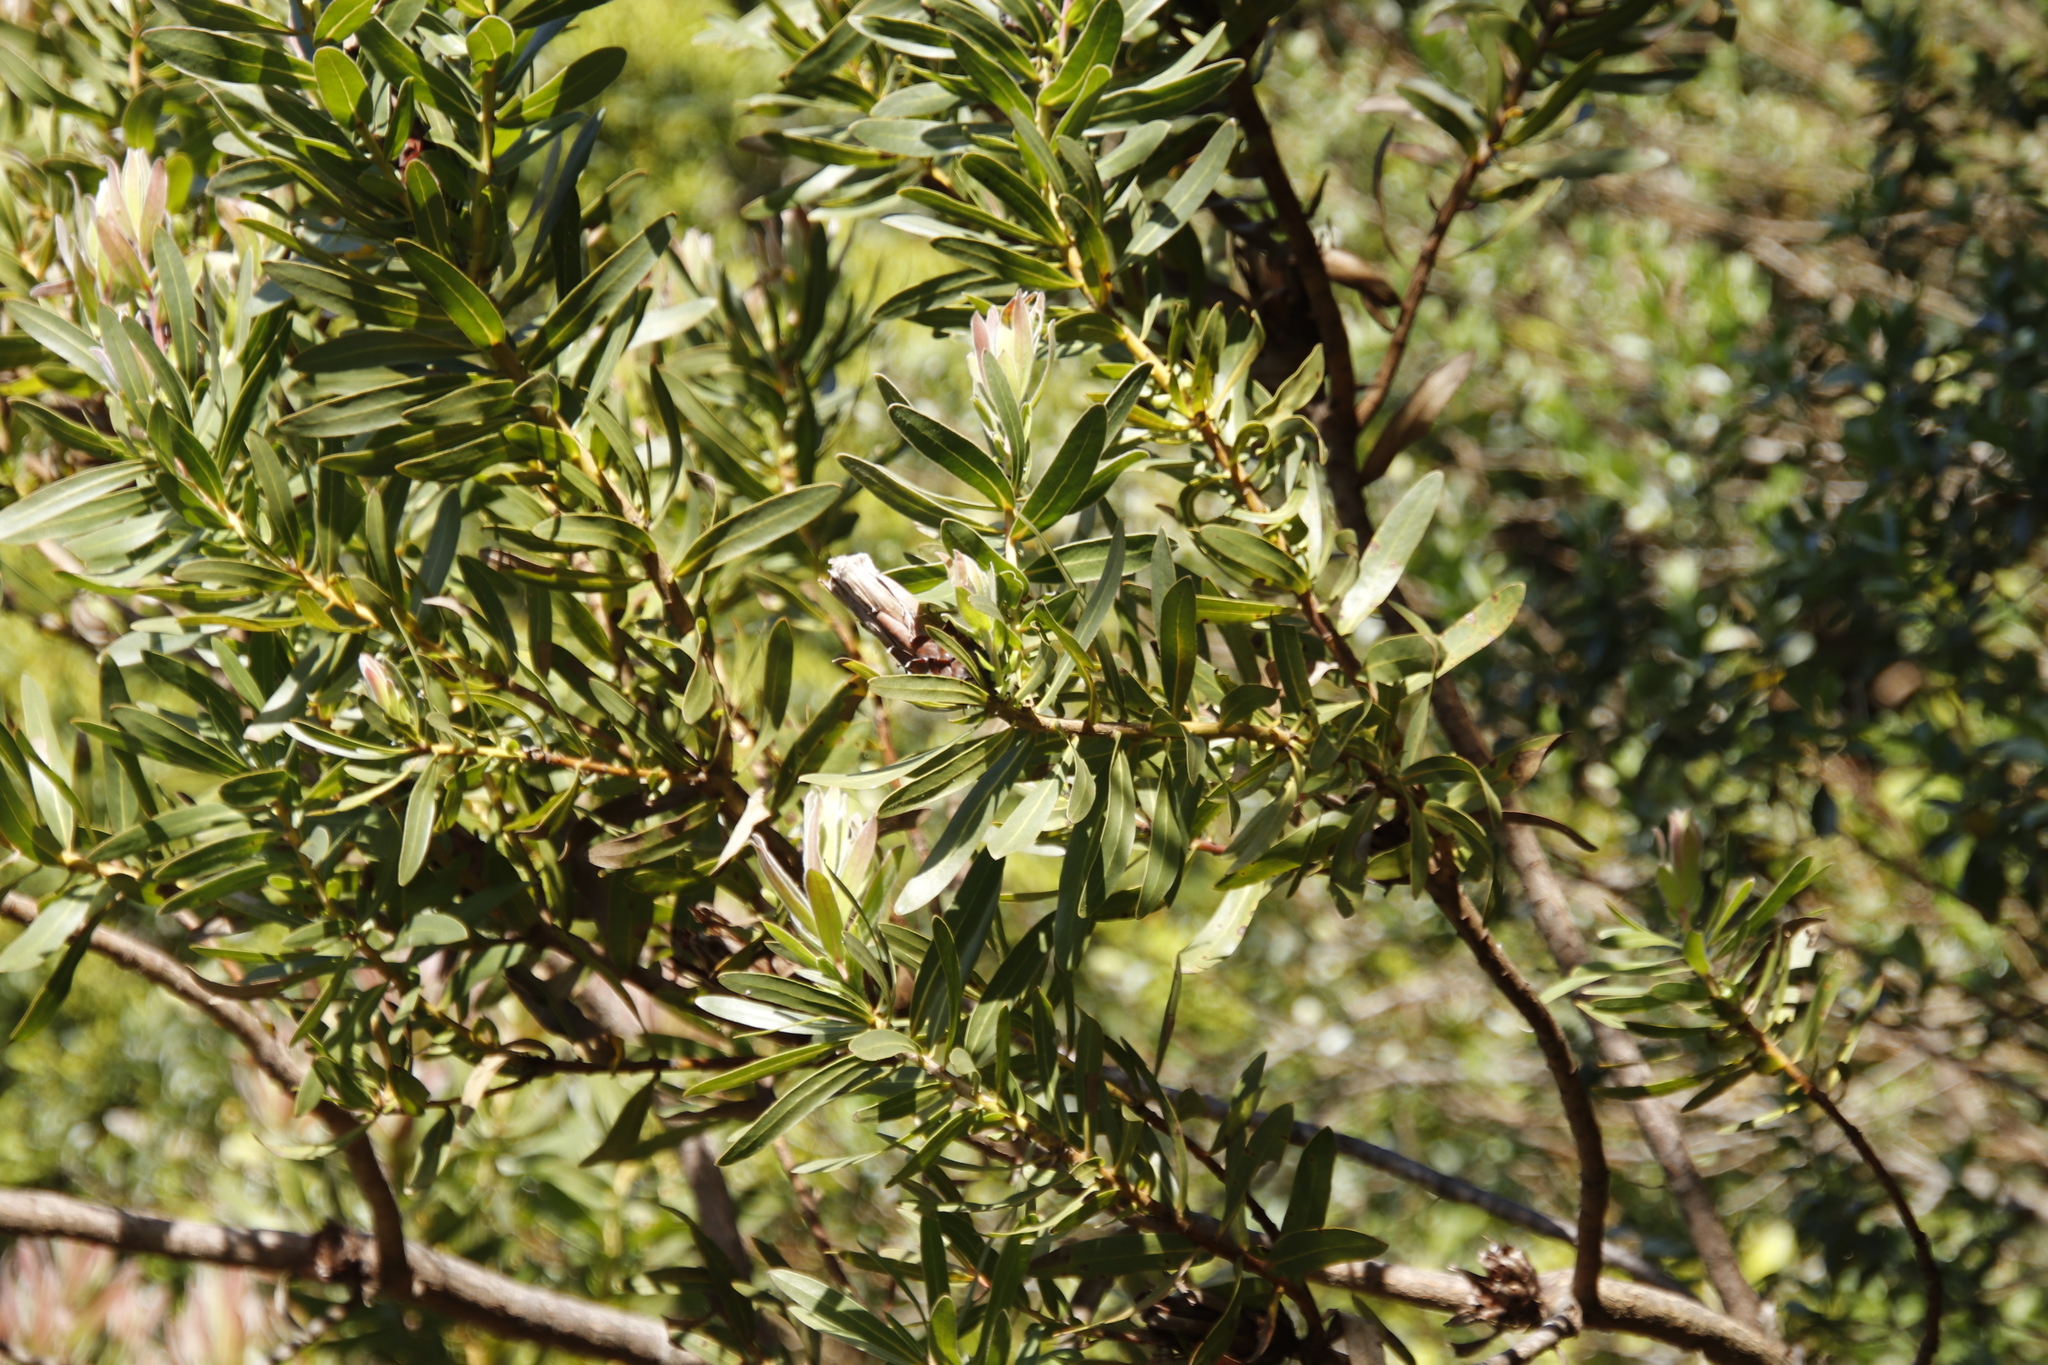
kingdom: Plantae
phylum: Tracheophyta
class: Magnoliopsida
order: Proteales
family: Proteaceae
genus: Protea
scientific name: Protea lepidocarpodendron
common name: Black-bearded protea
